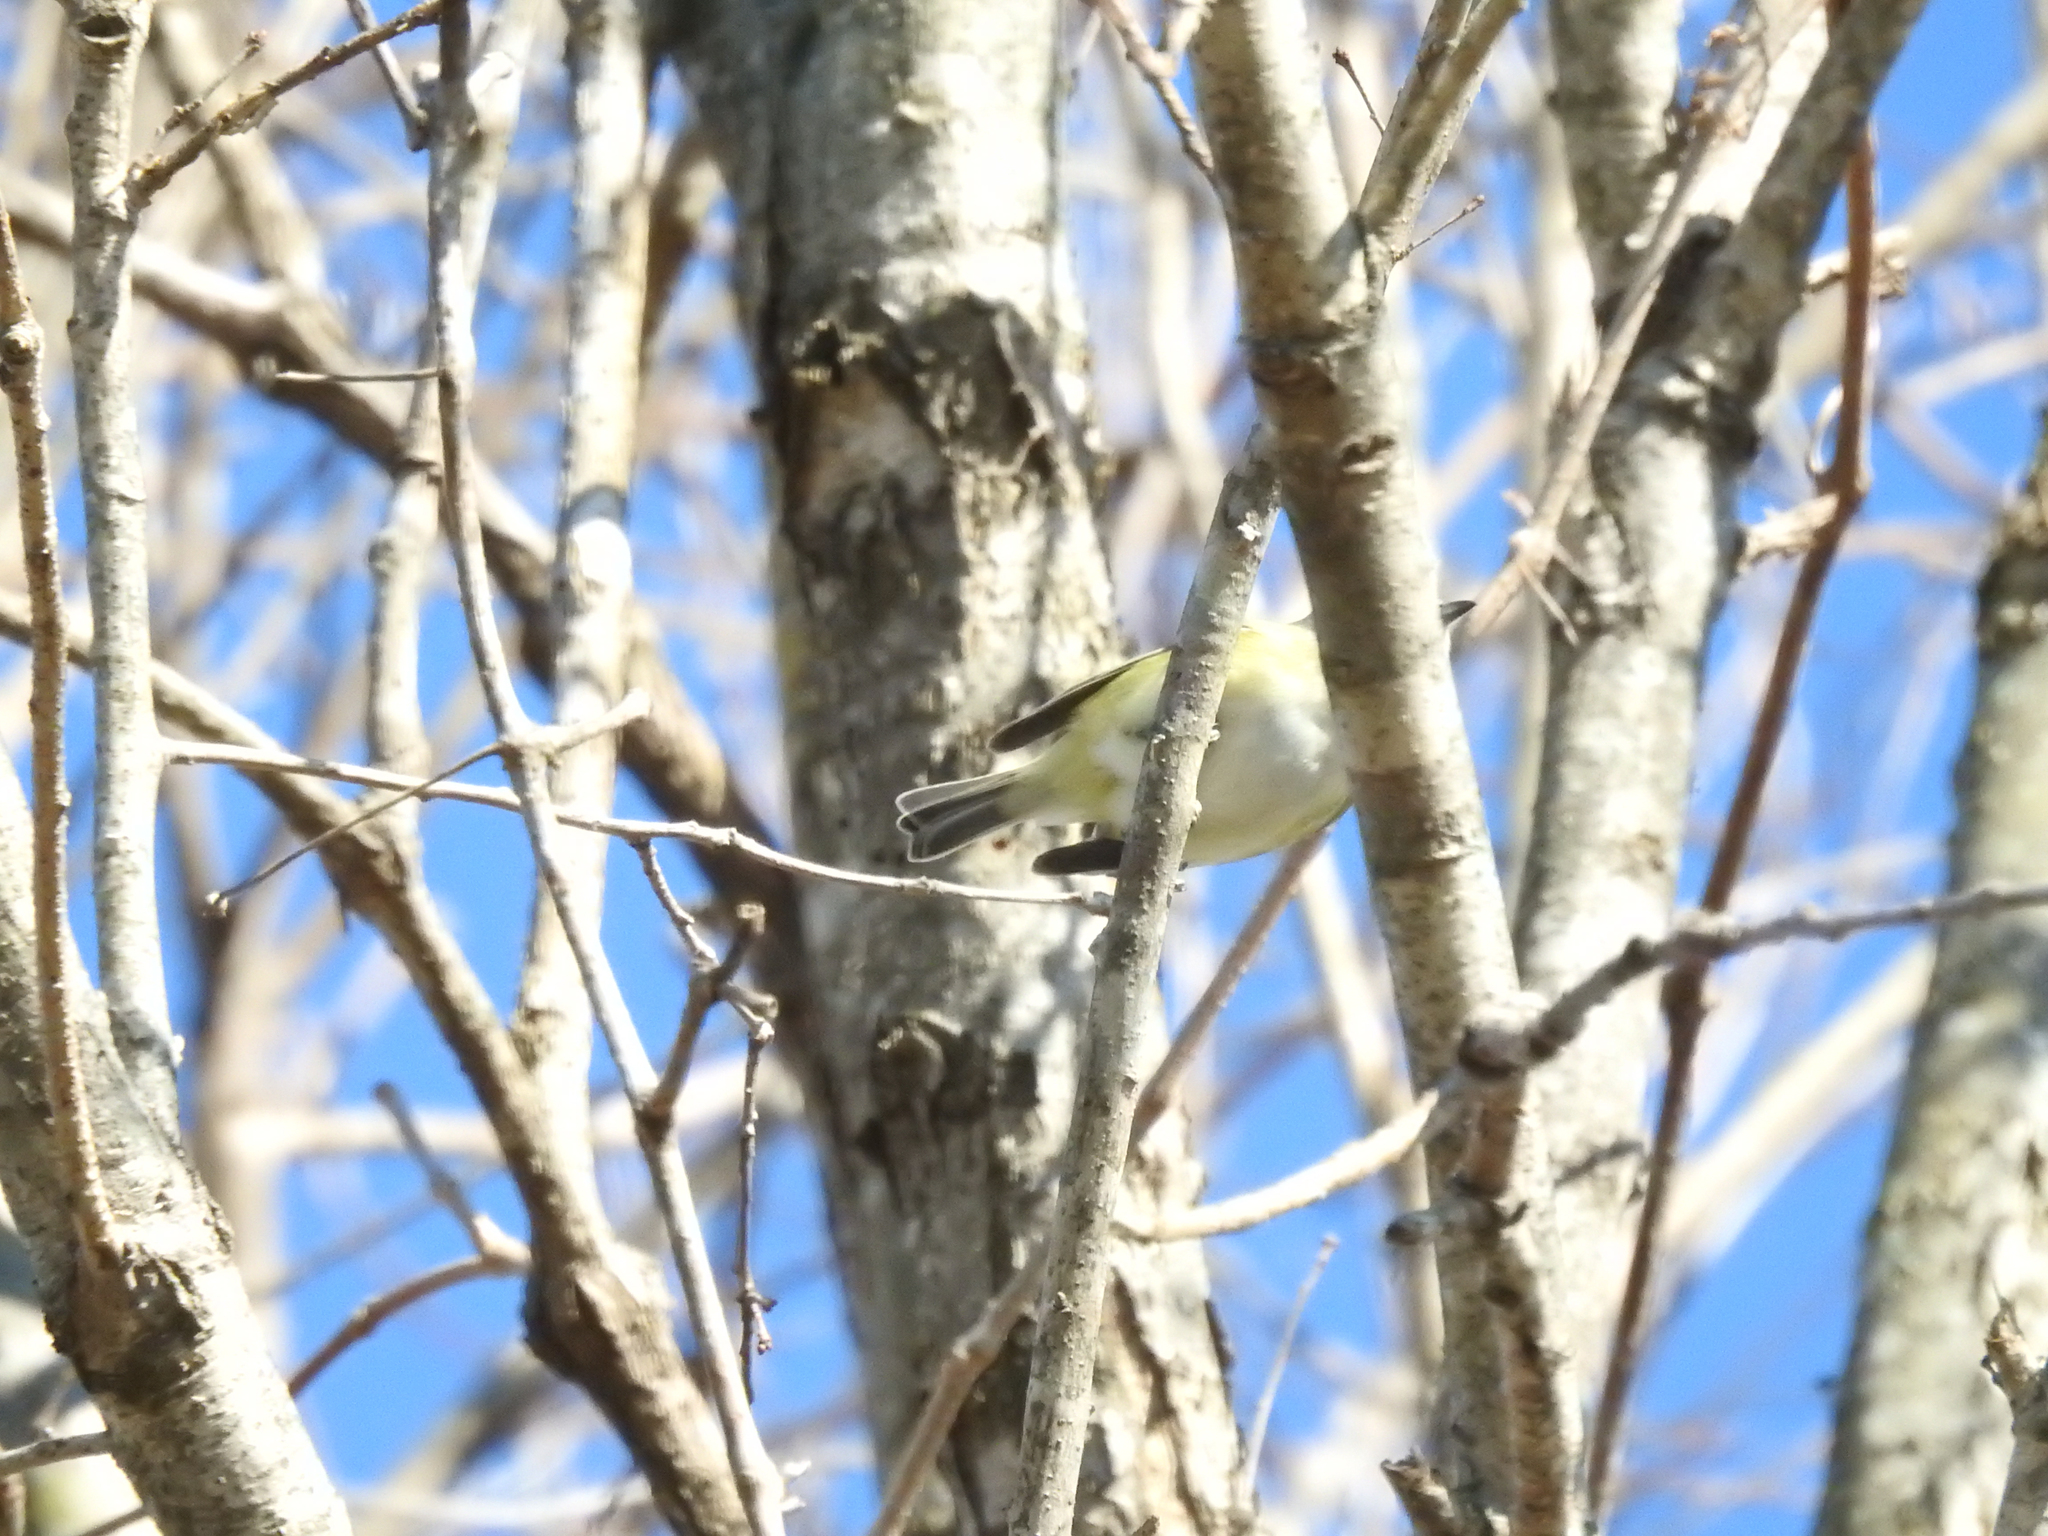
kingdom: Animalia
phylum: Chordata
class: Aves
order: Passeriformes
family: Vireonidae
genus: Vireo
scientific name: Vireo solitarius
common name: Blue-headed vireo
